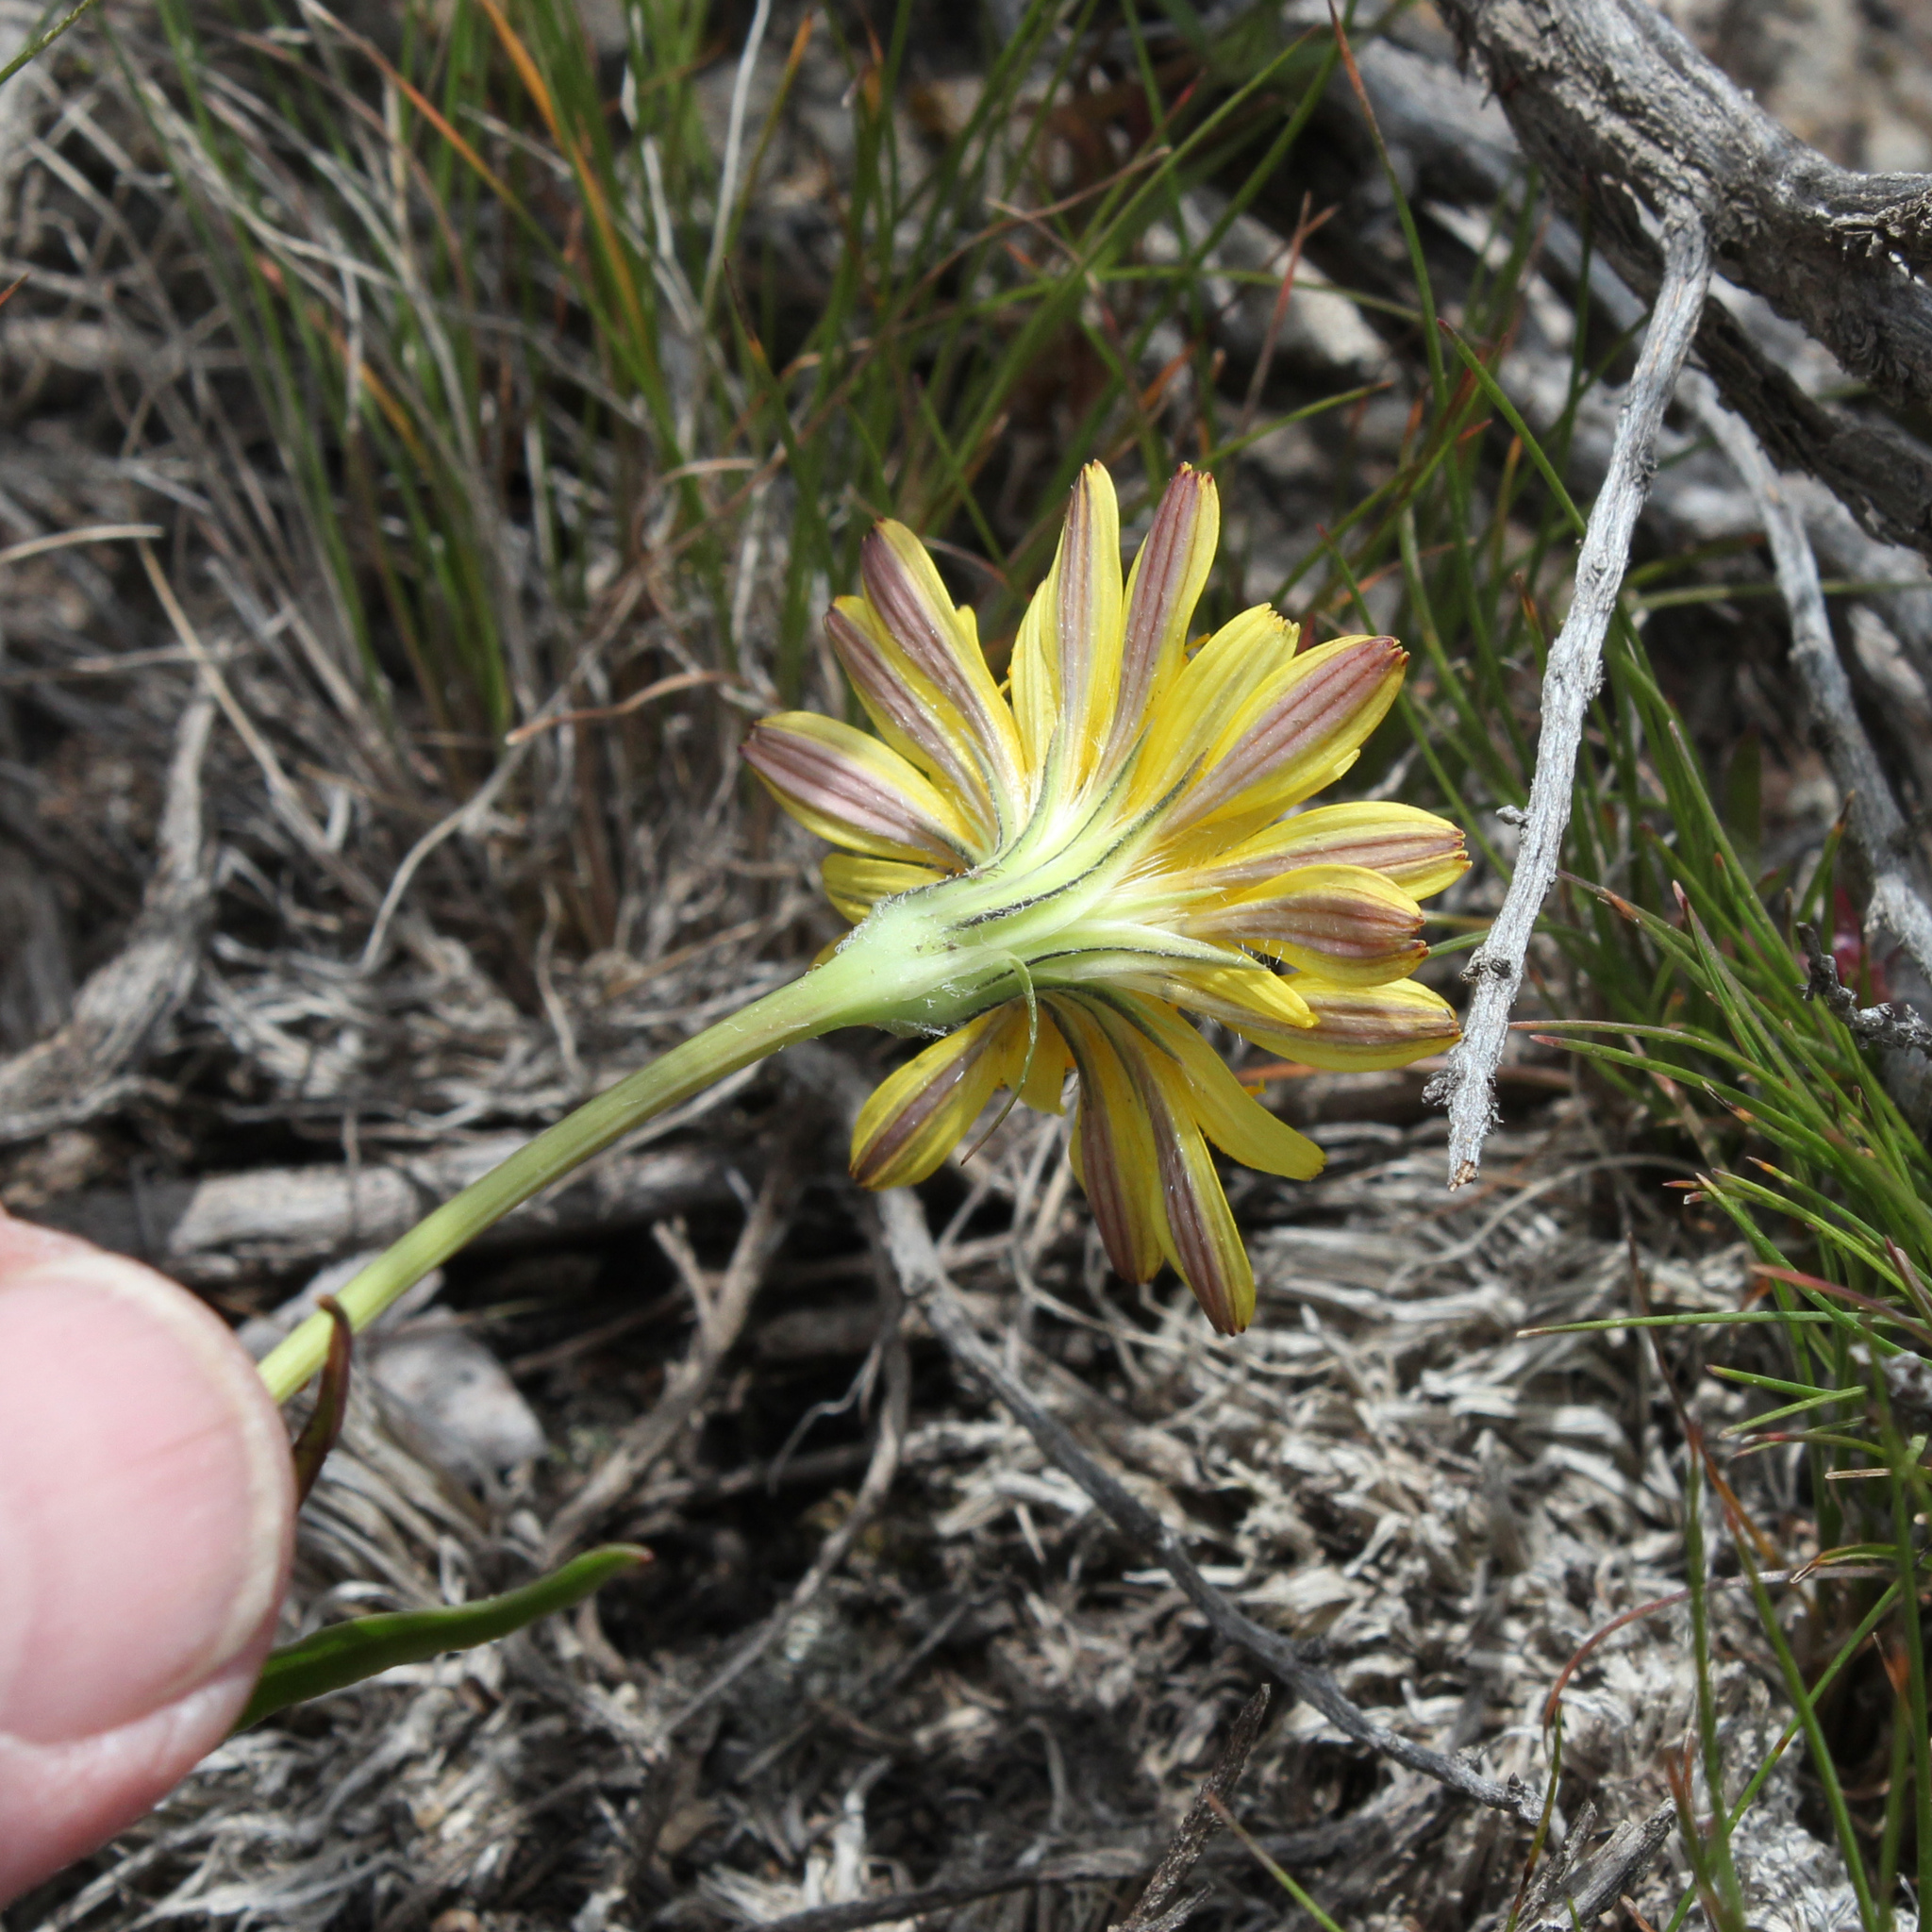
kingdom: Plantae
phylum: Tracheophyta
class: Magnoliopsida
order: Asterales
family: Asteraceae
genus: Microseris
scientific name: Microseris troximoides
